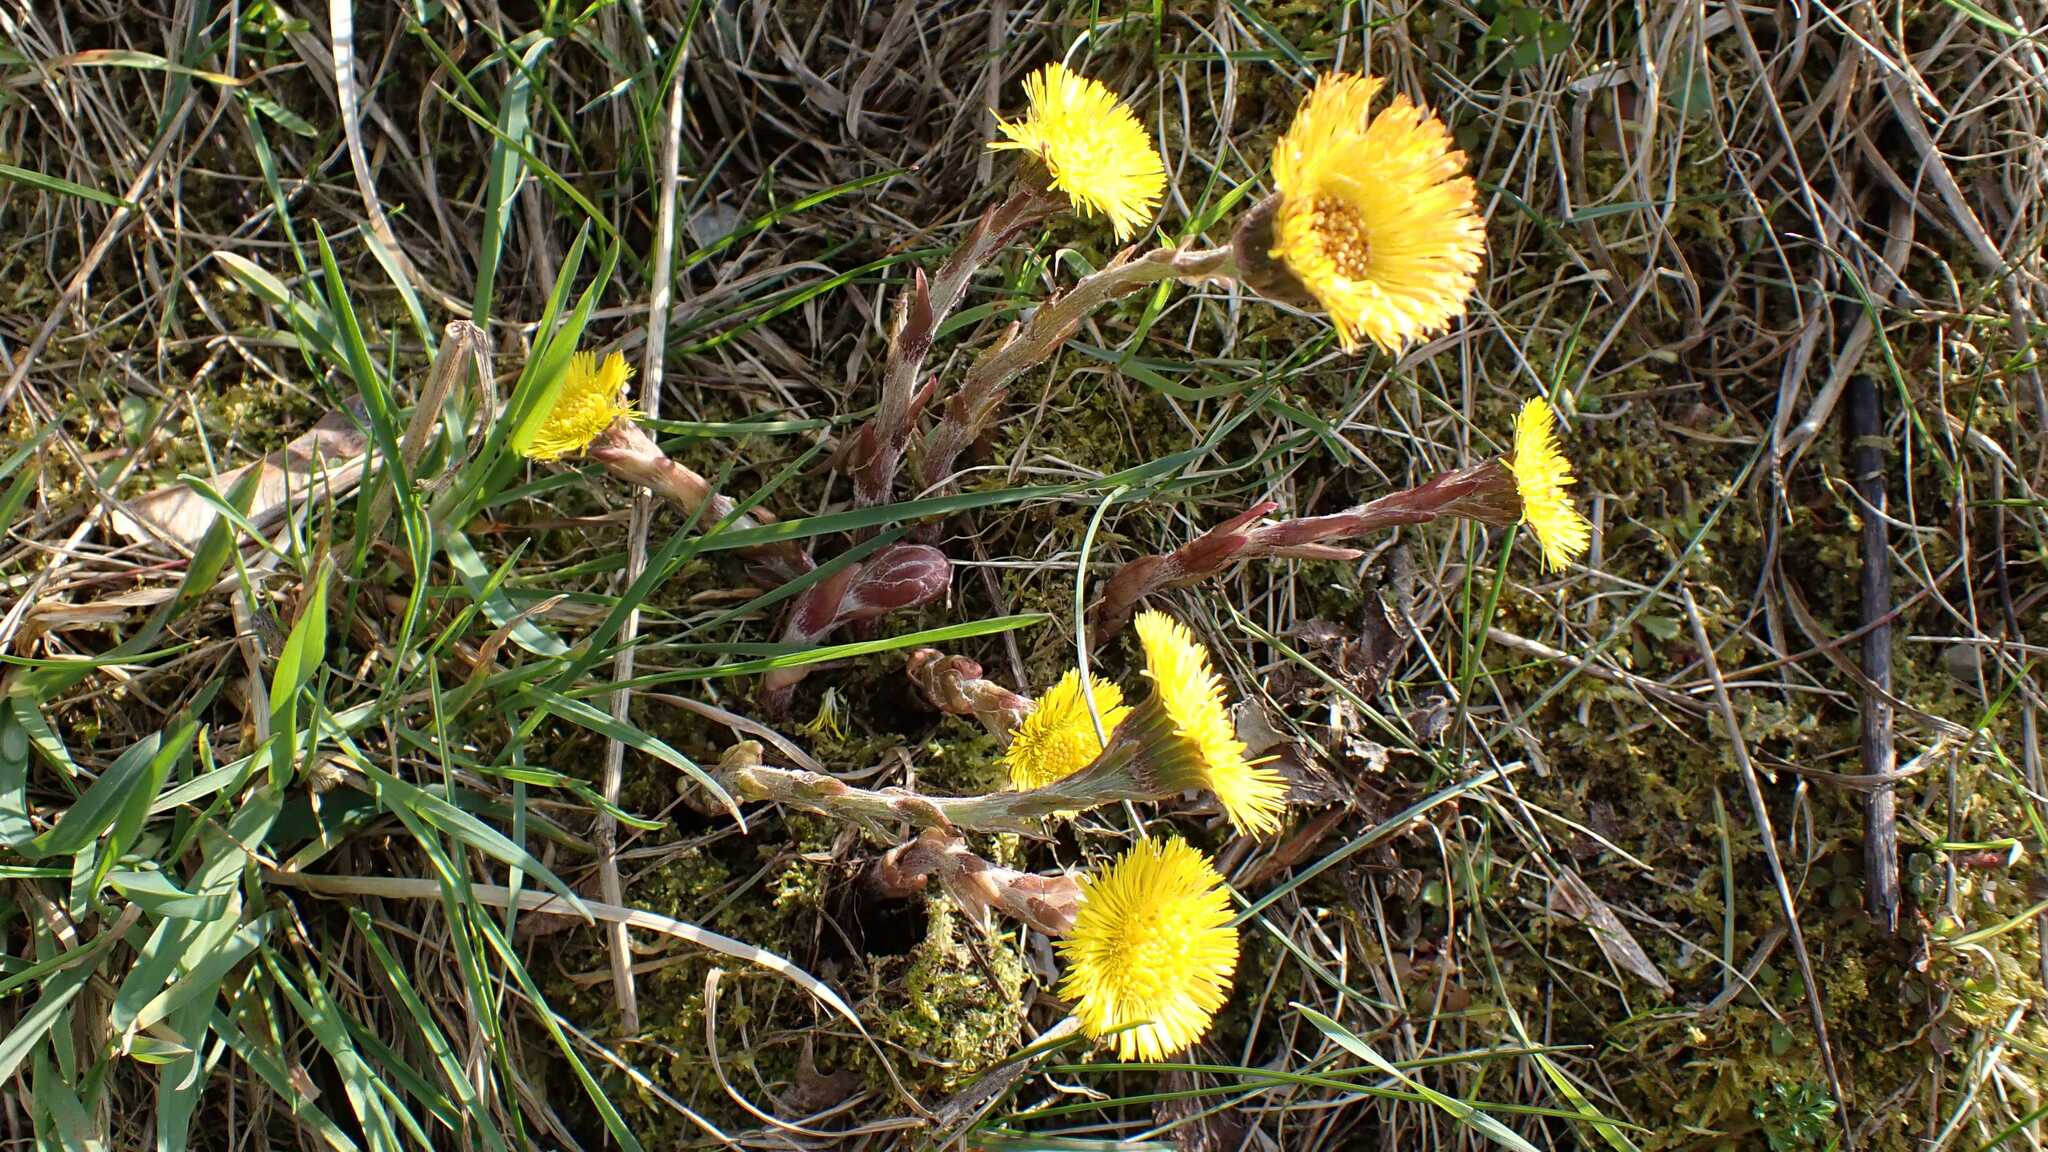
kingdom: Plantae
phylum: Tracheophyta
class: Magnoliopsida
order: Asterales
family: Asteraceae
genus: Tussilago
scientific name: Tussilago farfara
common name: Coltsfoot
